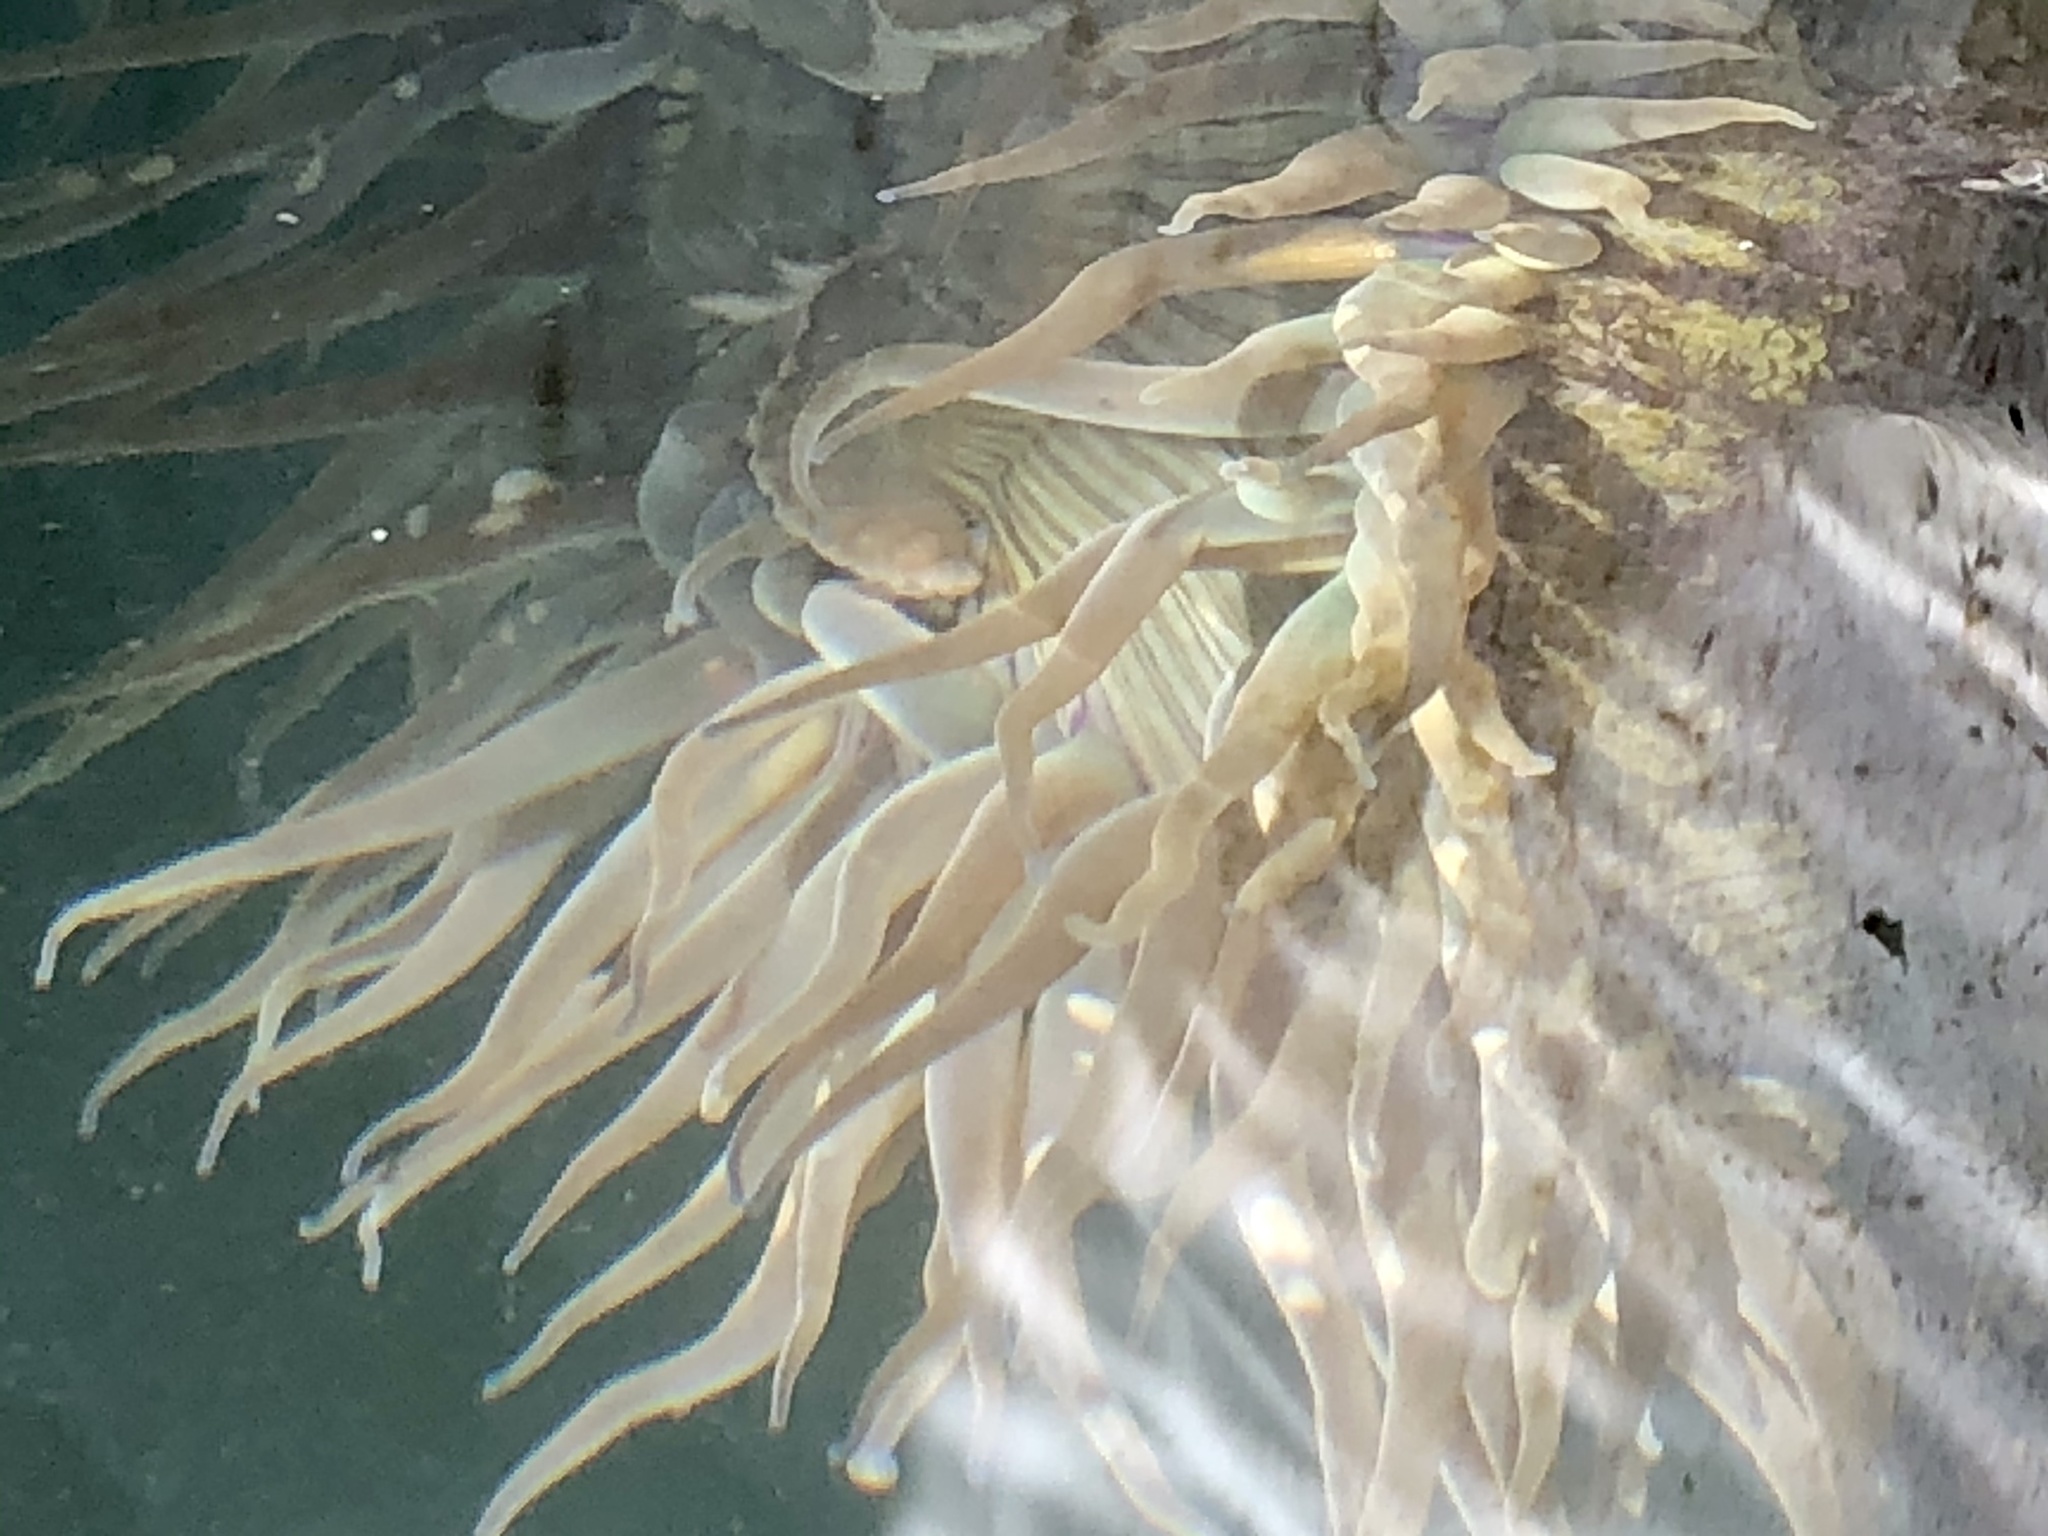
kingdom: Animalia
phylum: Cnidaria
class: Anthozoa
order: Actiniaria
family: Actiniidae
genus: Anthopleura
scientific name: Anthopleura sola
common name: Sun anemone
